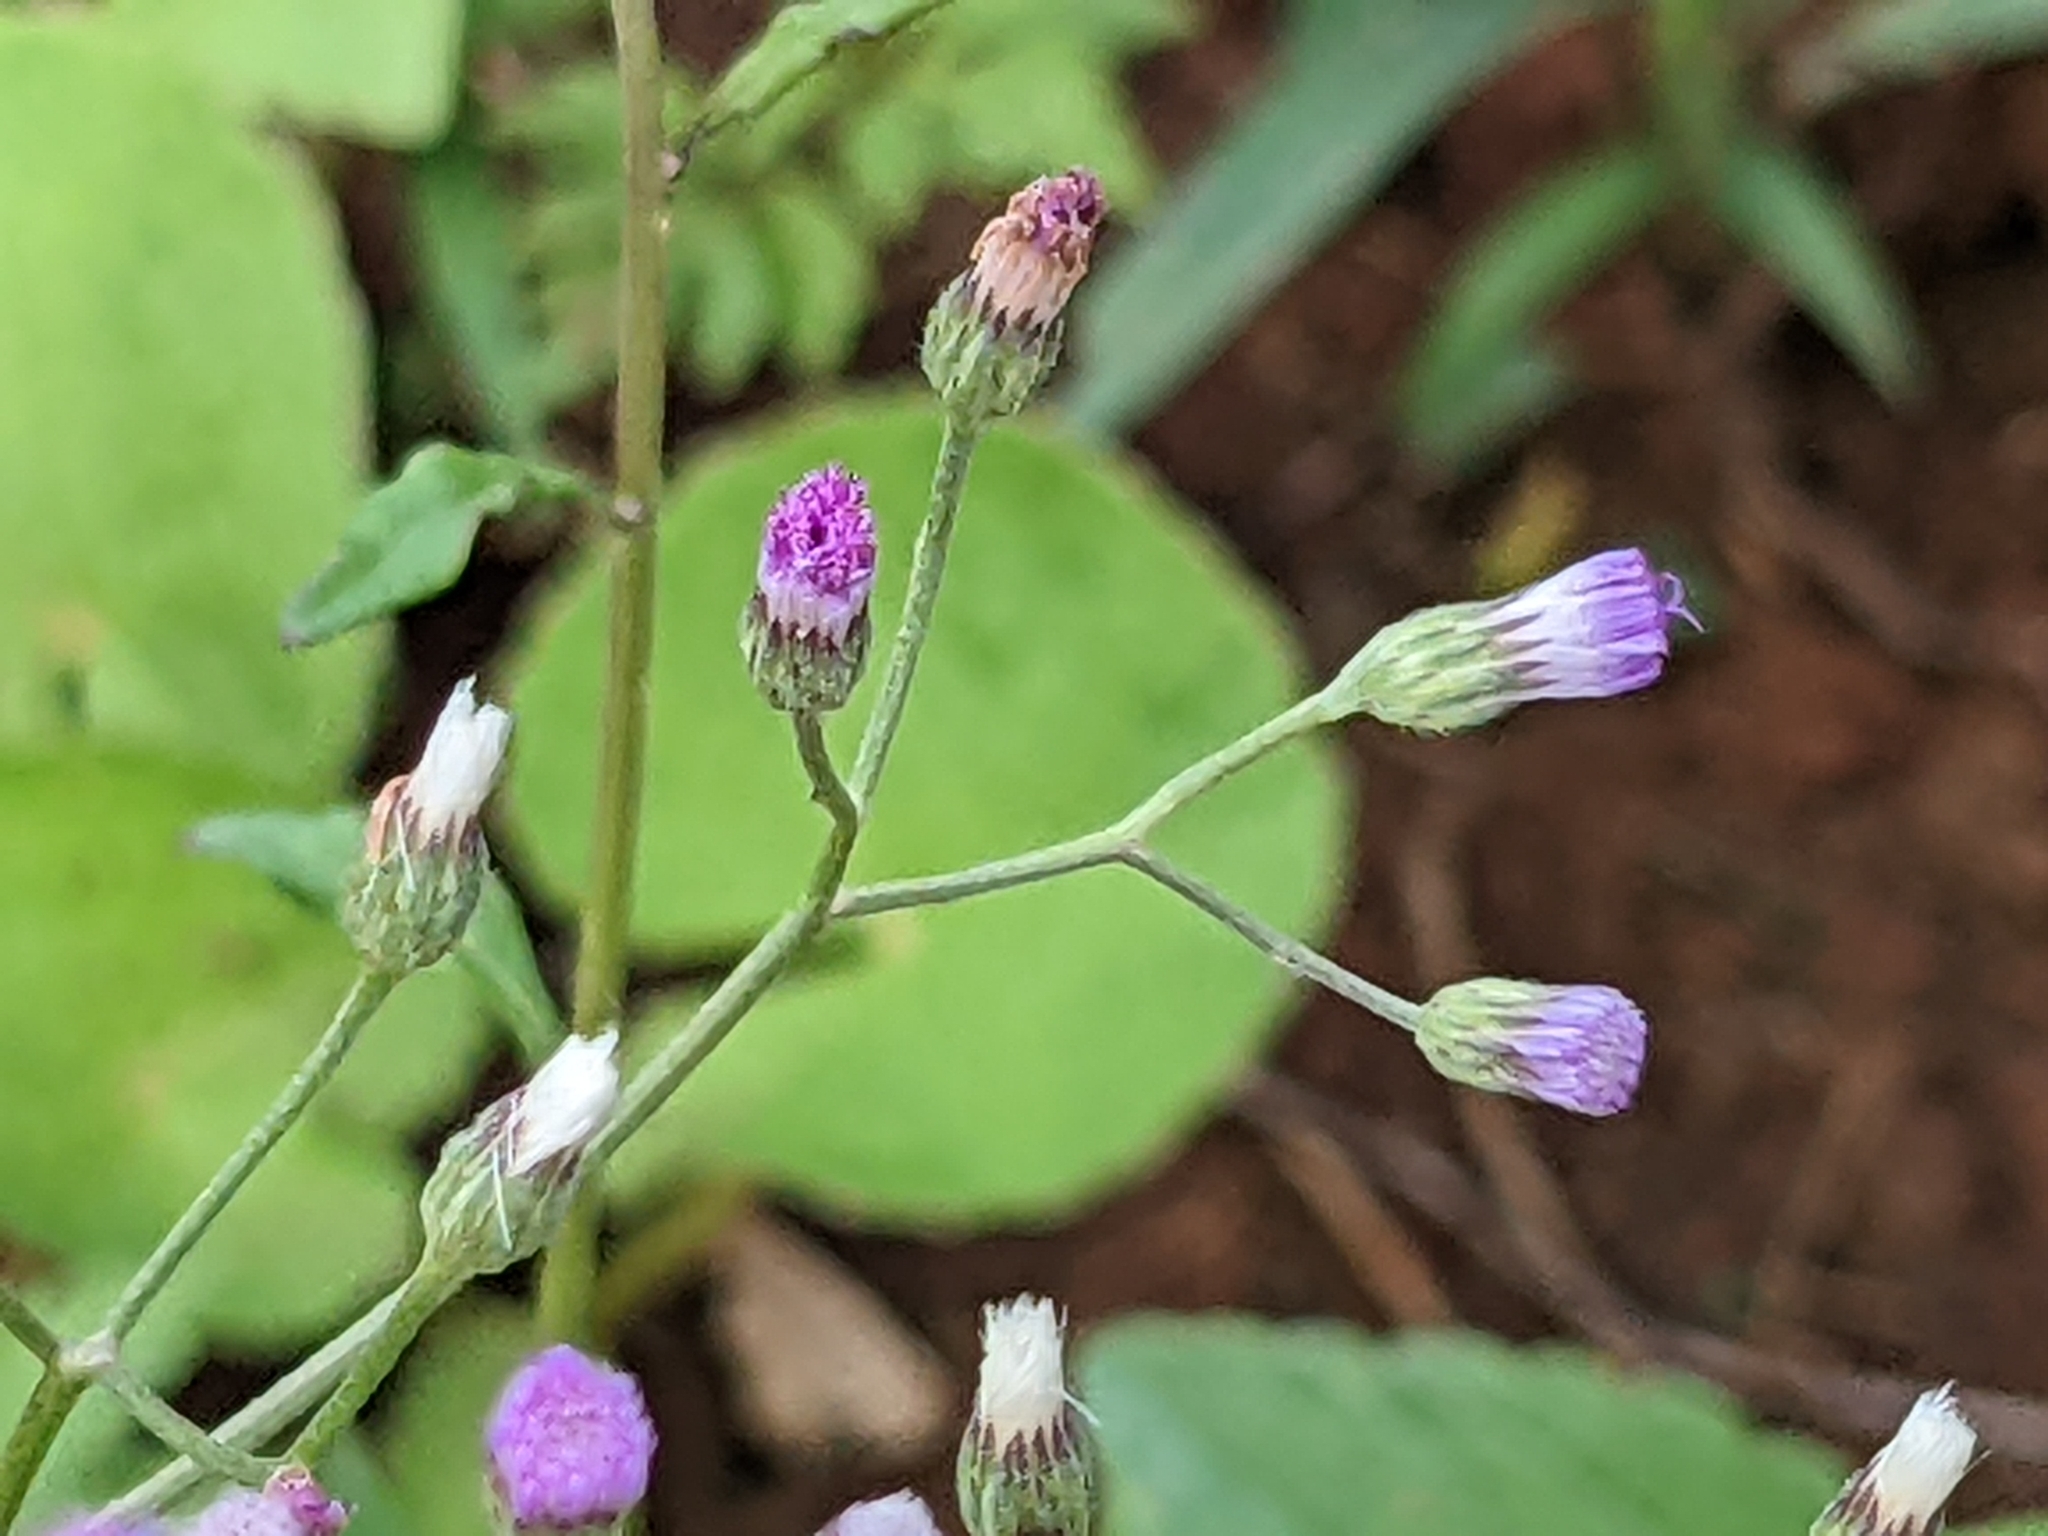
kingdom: Plantae
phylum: Tracheophyta
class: Magnoliopsida
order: Asterales
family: Asteraceae
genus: Cyanthillium
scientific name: Cyanthillium cinereum
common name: Little ironweed
